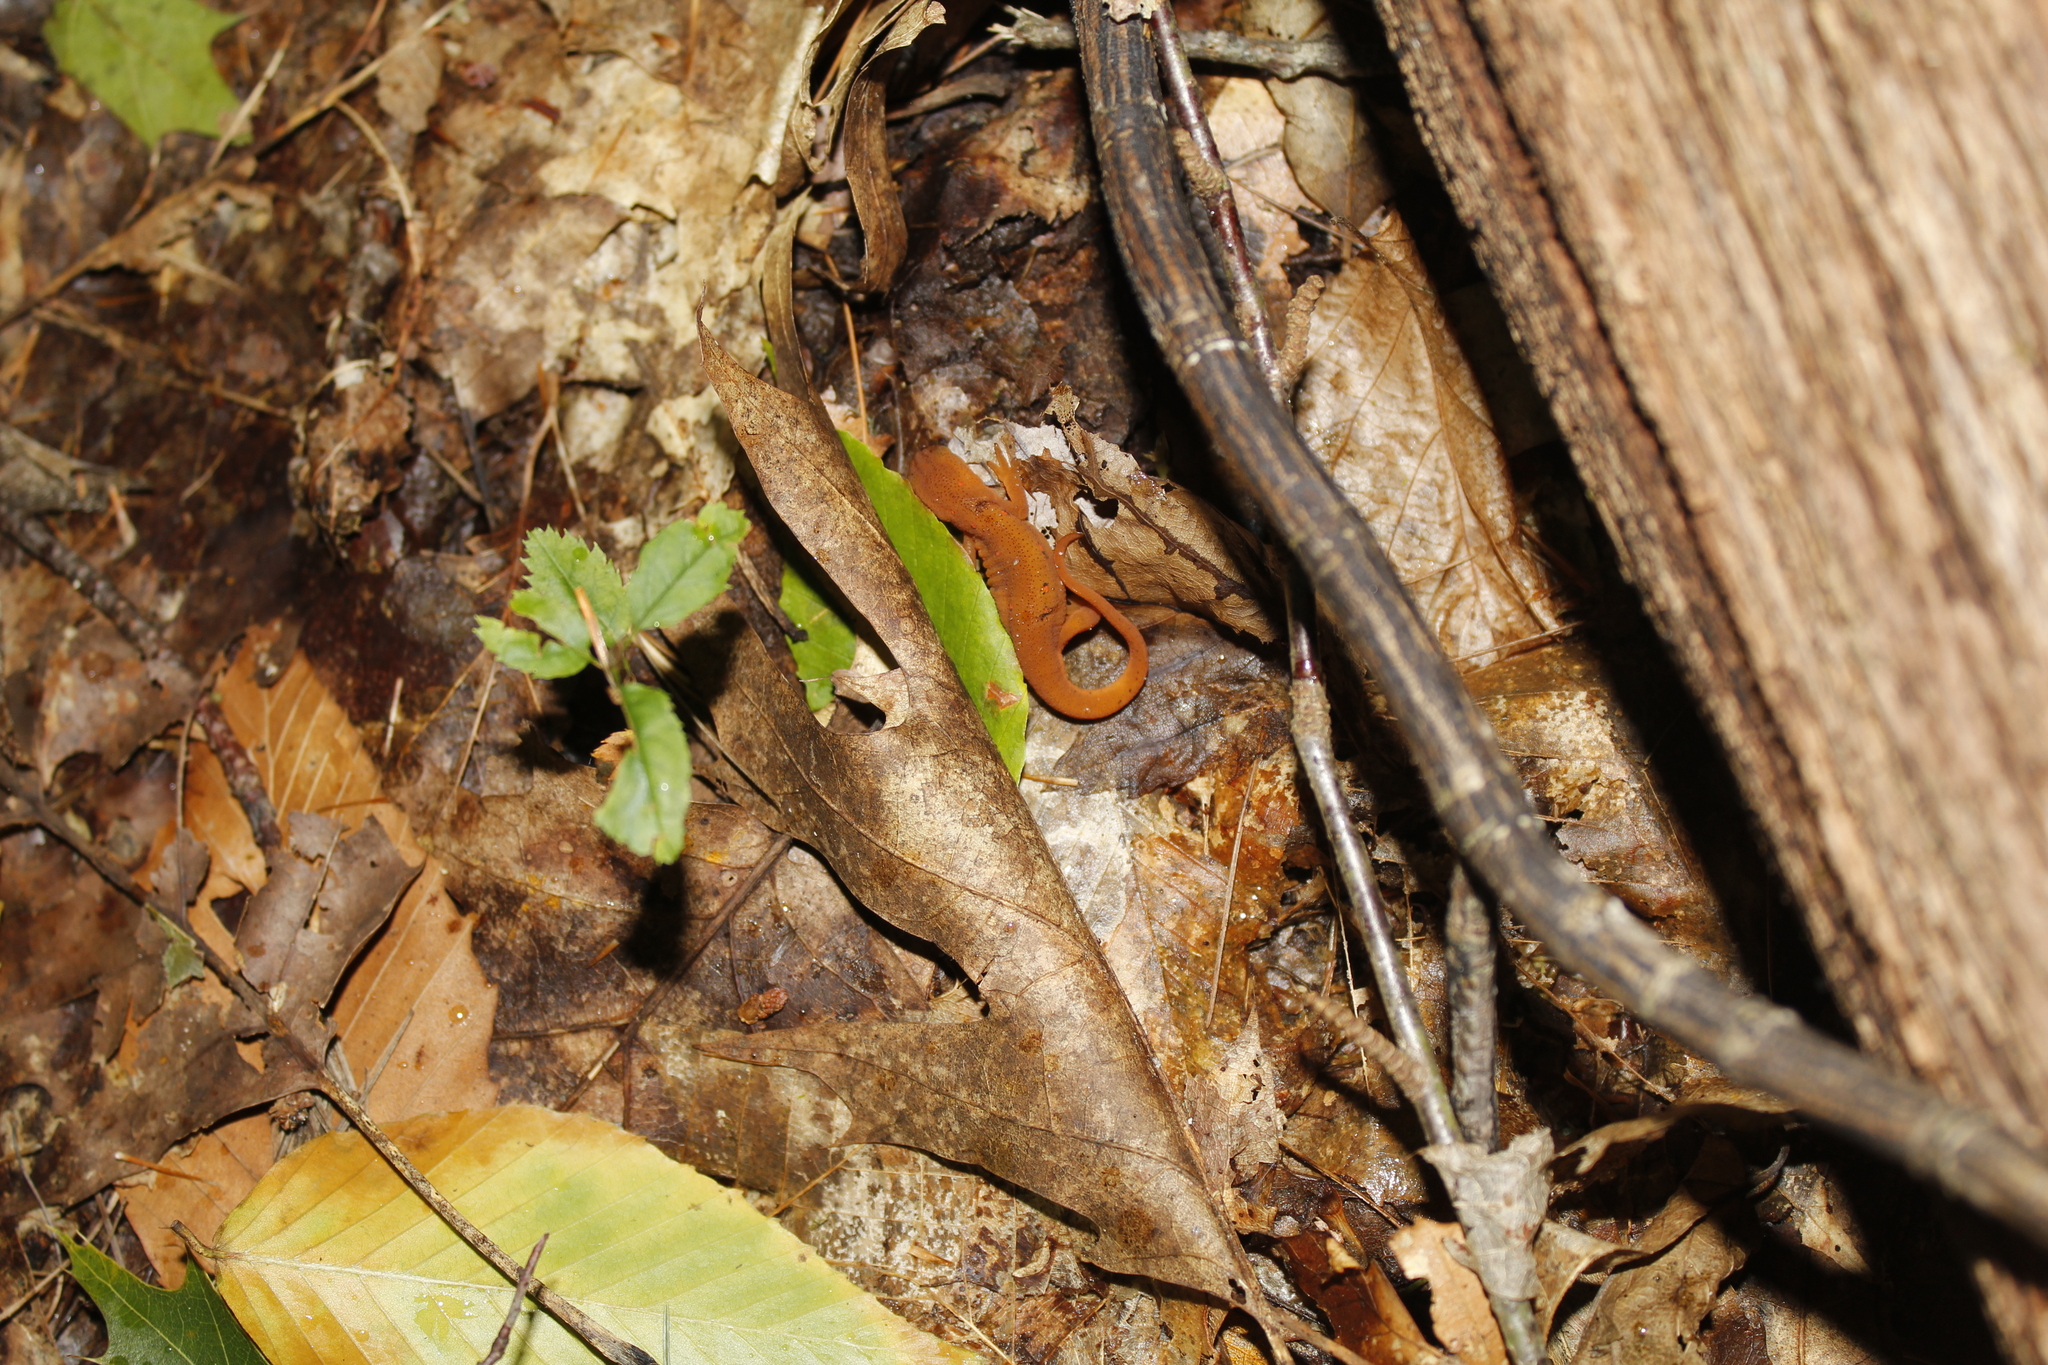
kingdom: Animalia
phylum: Chordata
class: Amphibia
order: Caudata
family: Salamandridae
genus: Notophthalmus
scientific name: Notophthalmus viridescens
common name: Eastern newt
